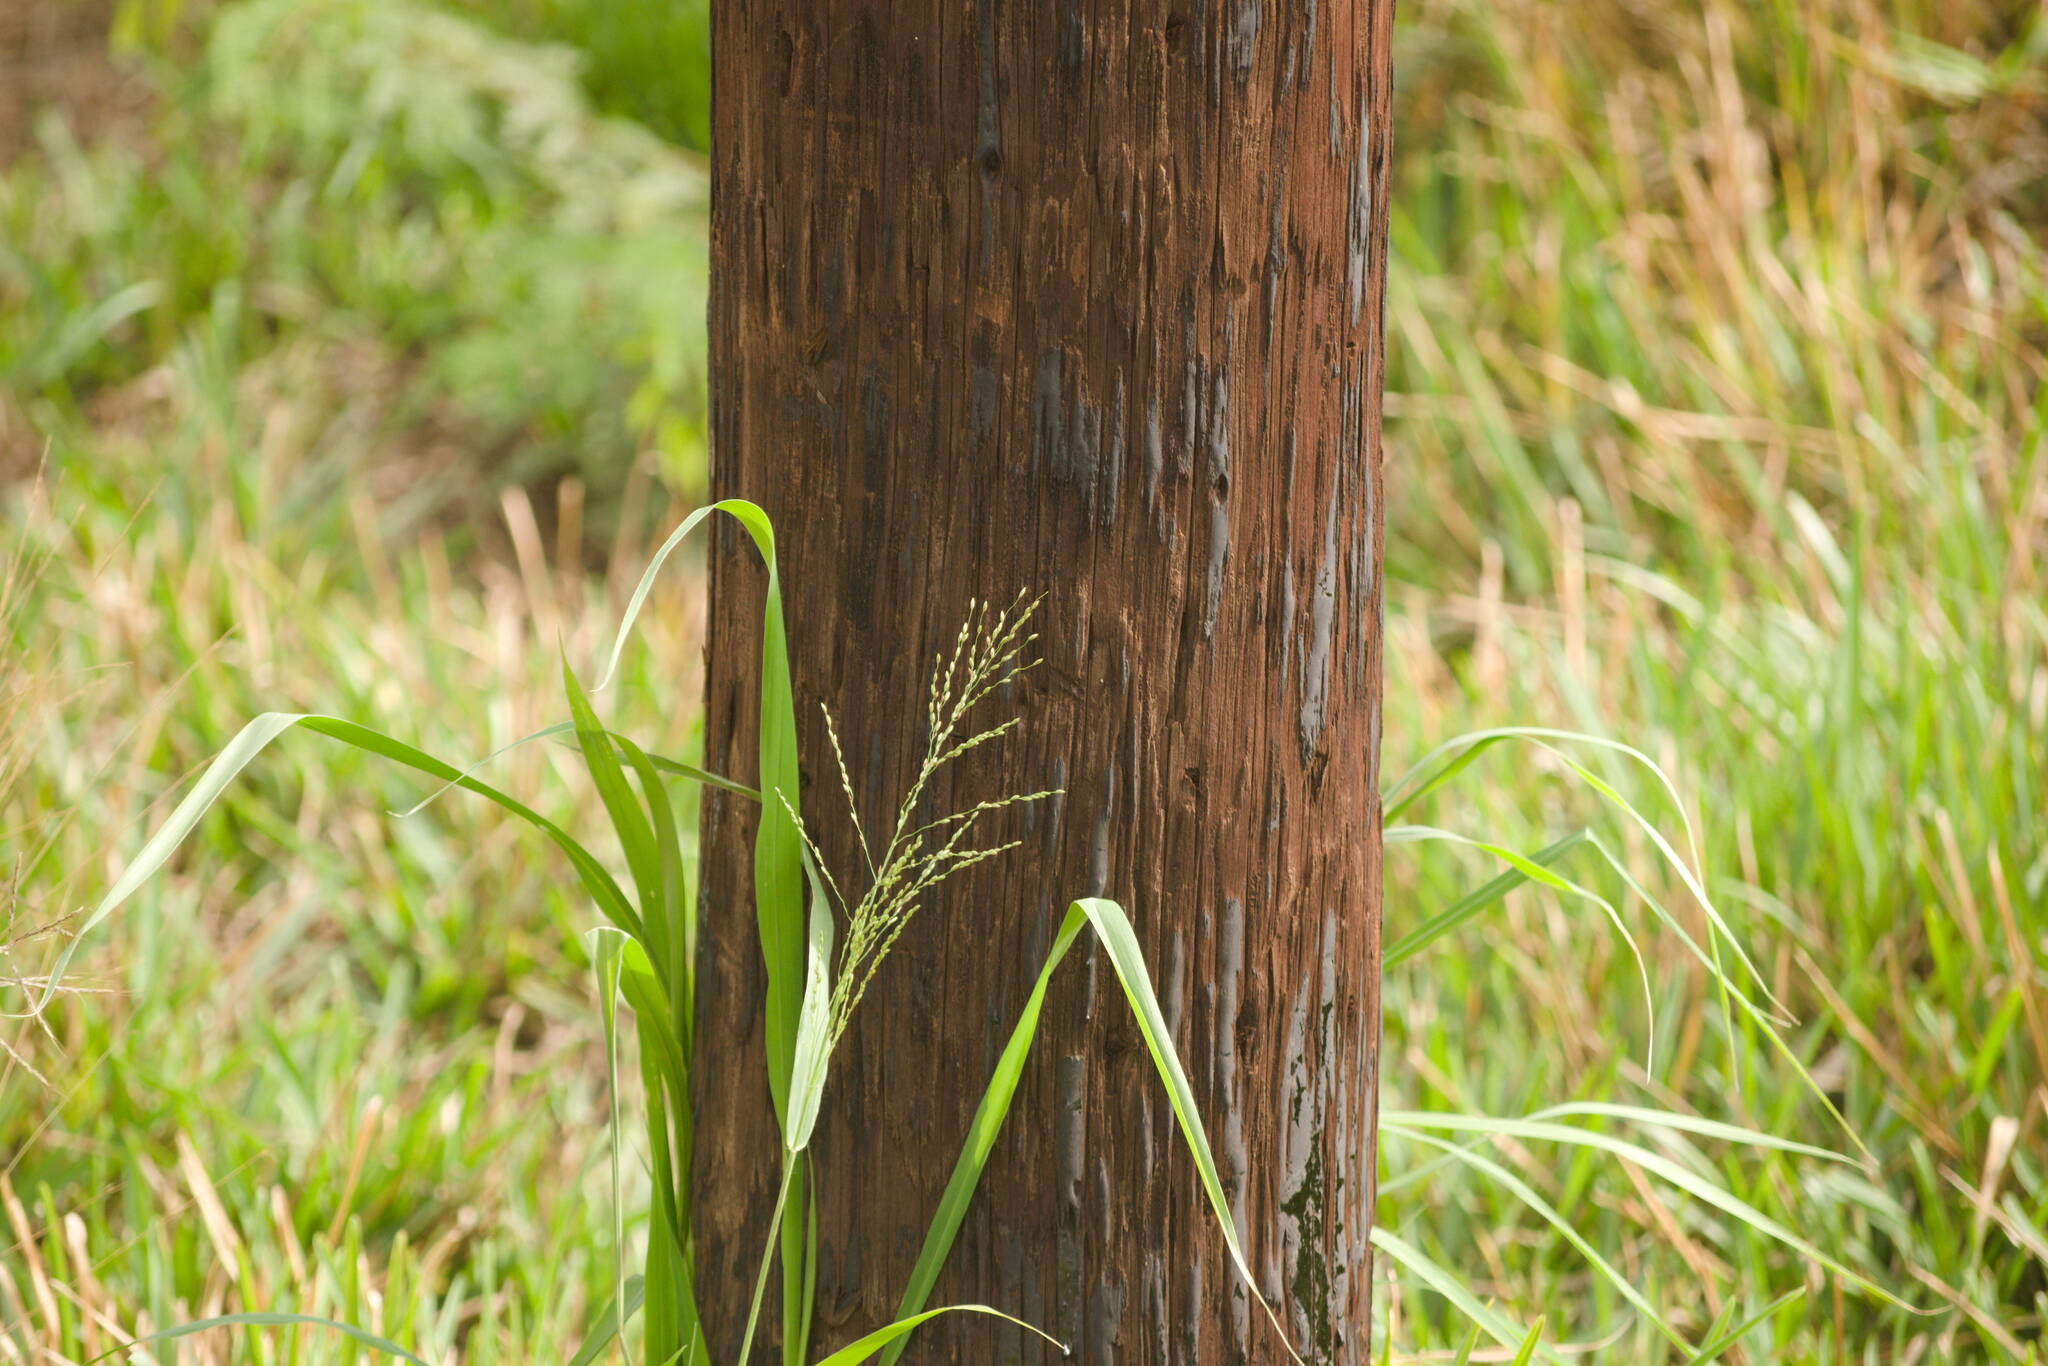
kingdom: Plantae
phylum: Tracheophyta
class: Liliopsida
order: Poales
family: Poaceae
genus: Megathyrsus
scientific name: Megathyrsus maximus
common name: Guineagrass
